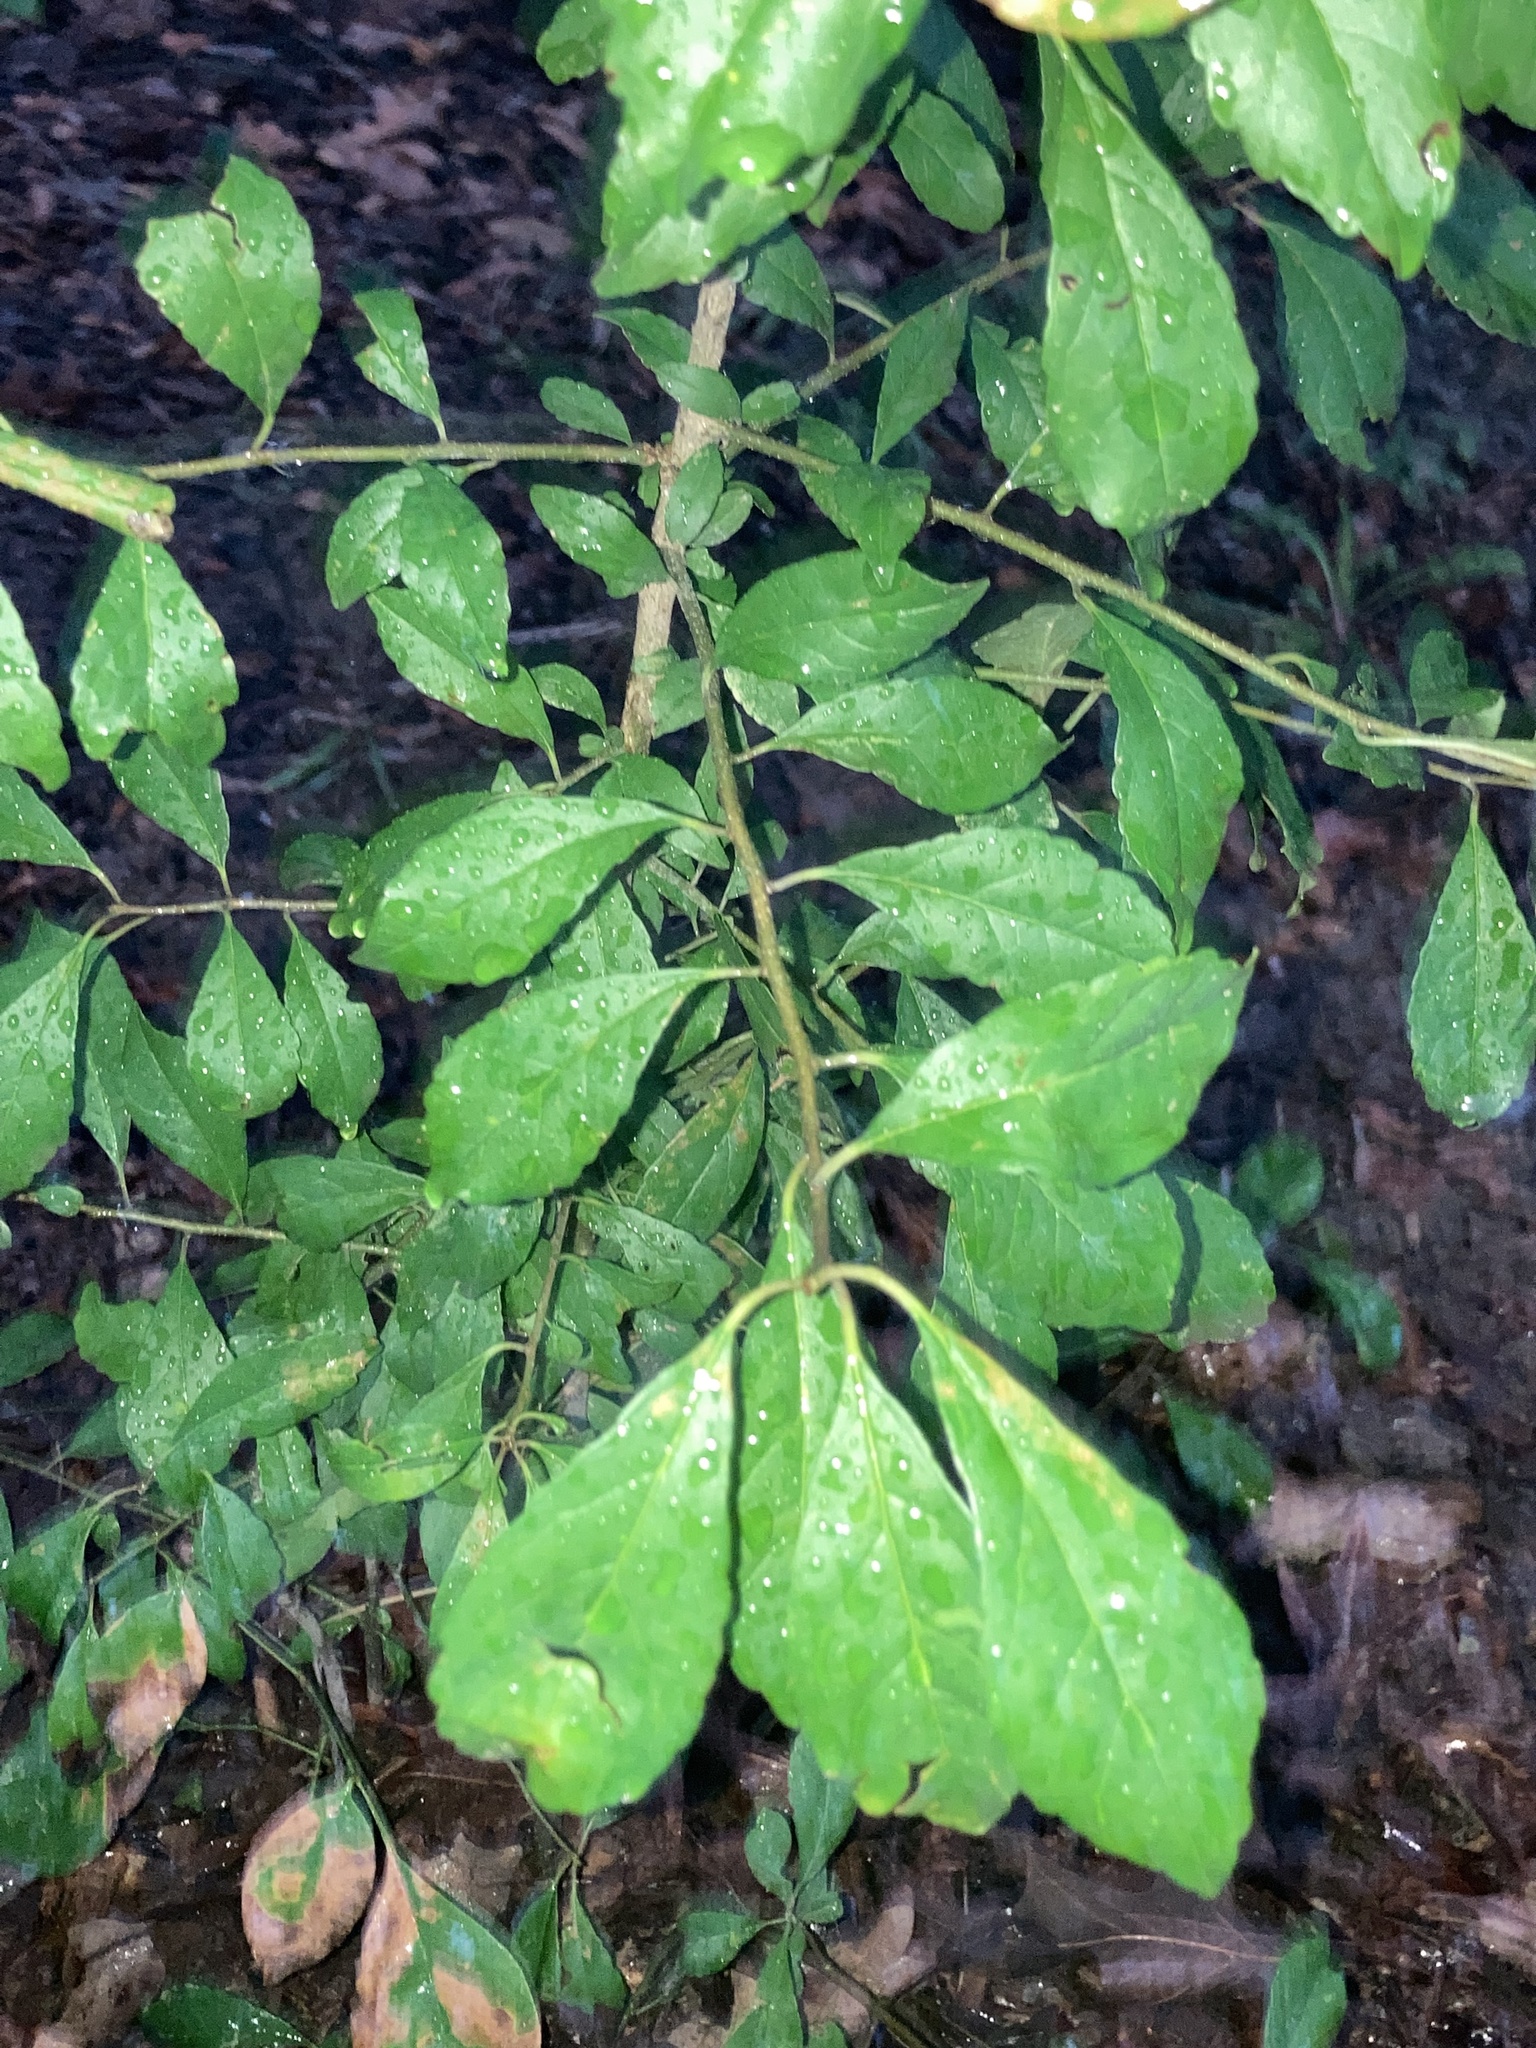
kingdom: Plantae
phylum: Tracheophyta
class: Magnoliopsida
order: Aquifoliales
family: Aquifoliaceae
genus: Ilex
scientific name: Ilex decidua
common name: Possum-haw
